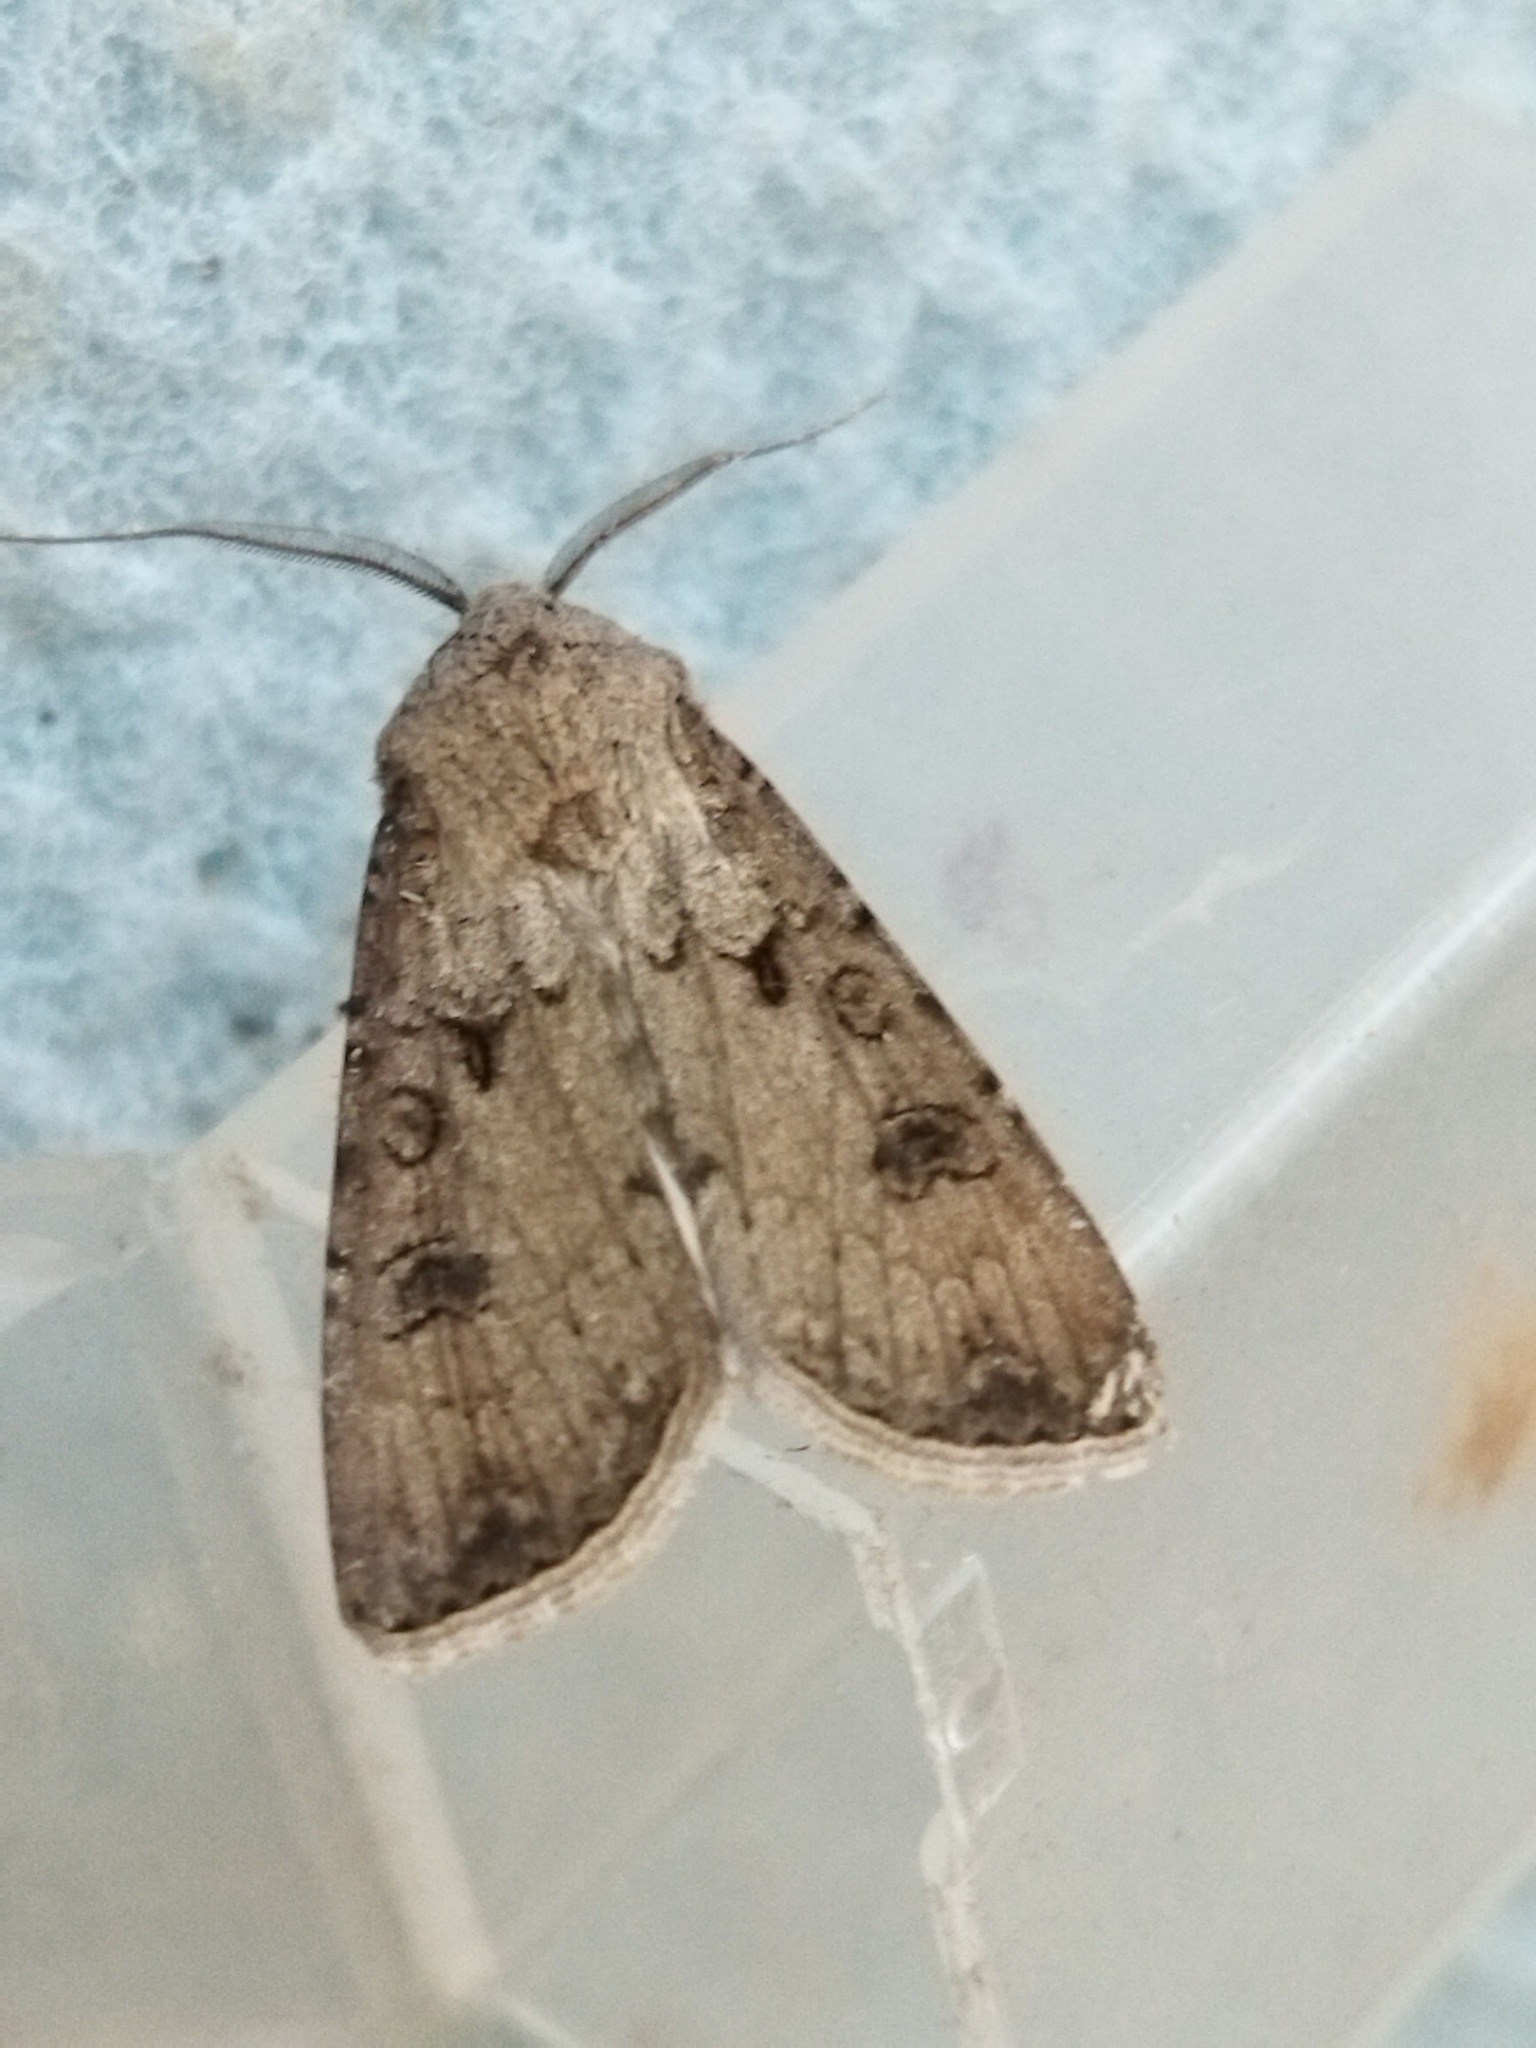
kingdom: Animalia
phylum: Arthropoda
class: Insecta
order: Lepidoptera
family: Noctuidae
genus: Agrotis
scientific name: Agrotis segetum
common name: Turnip moth
